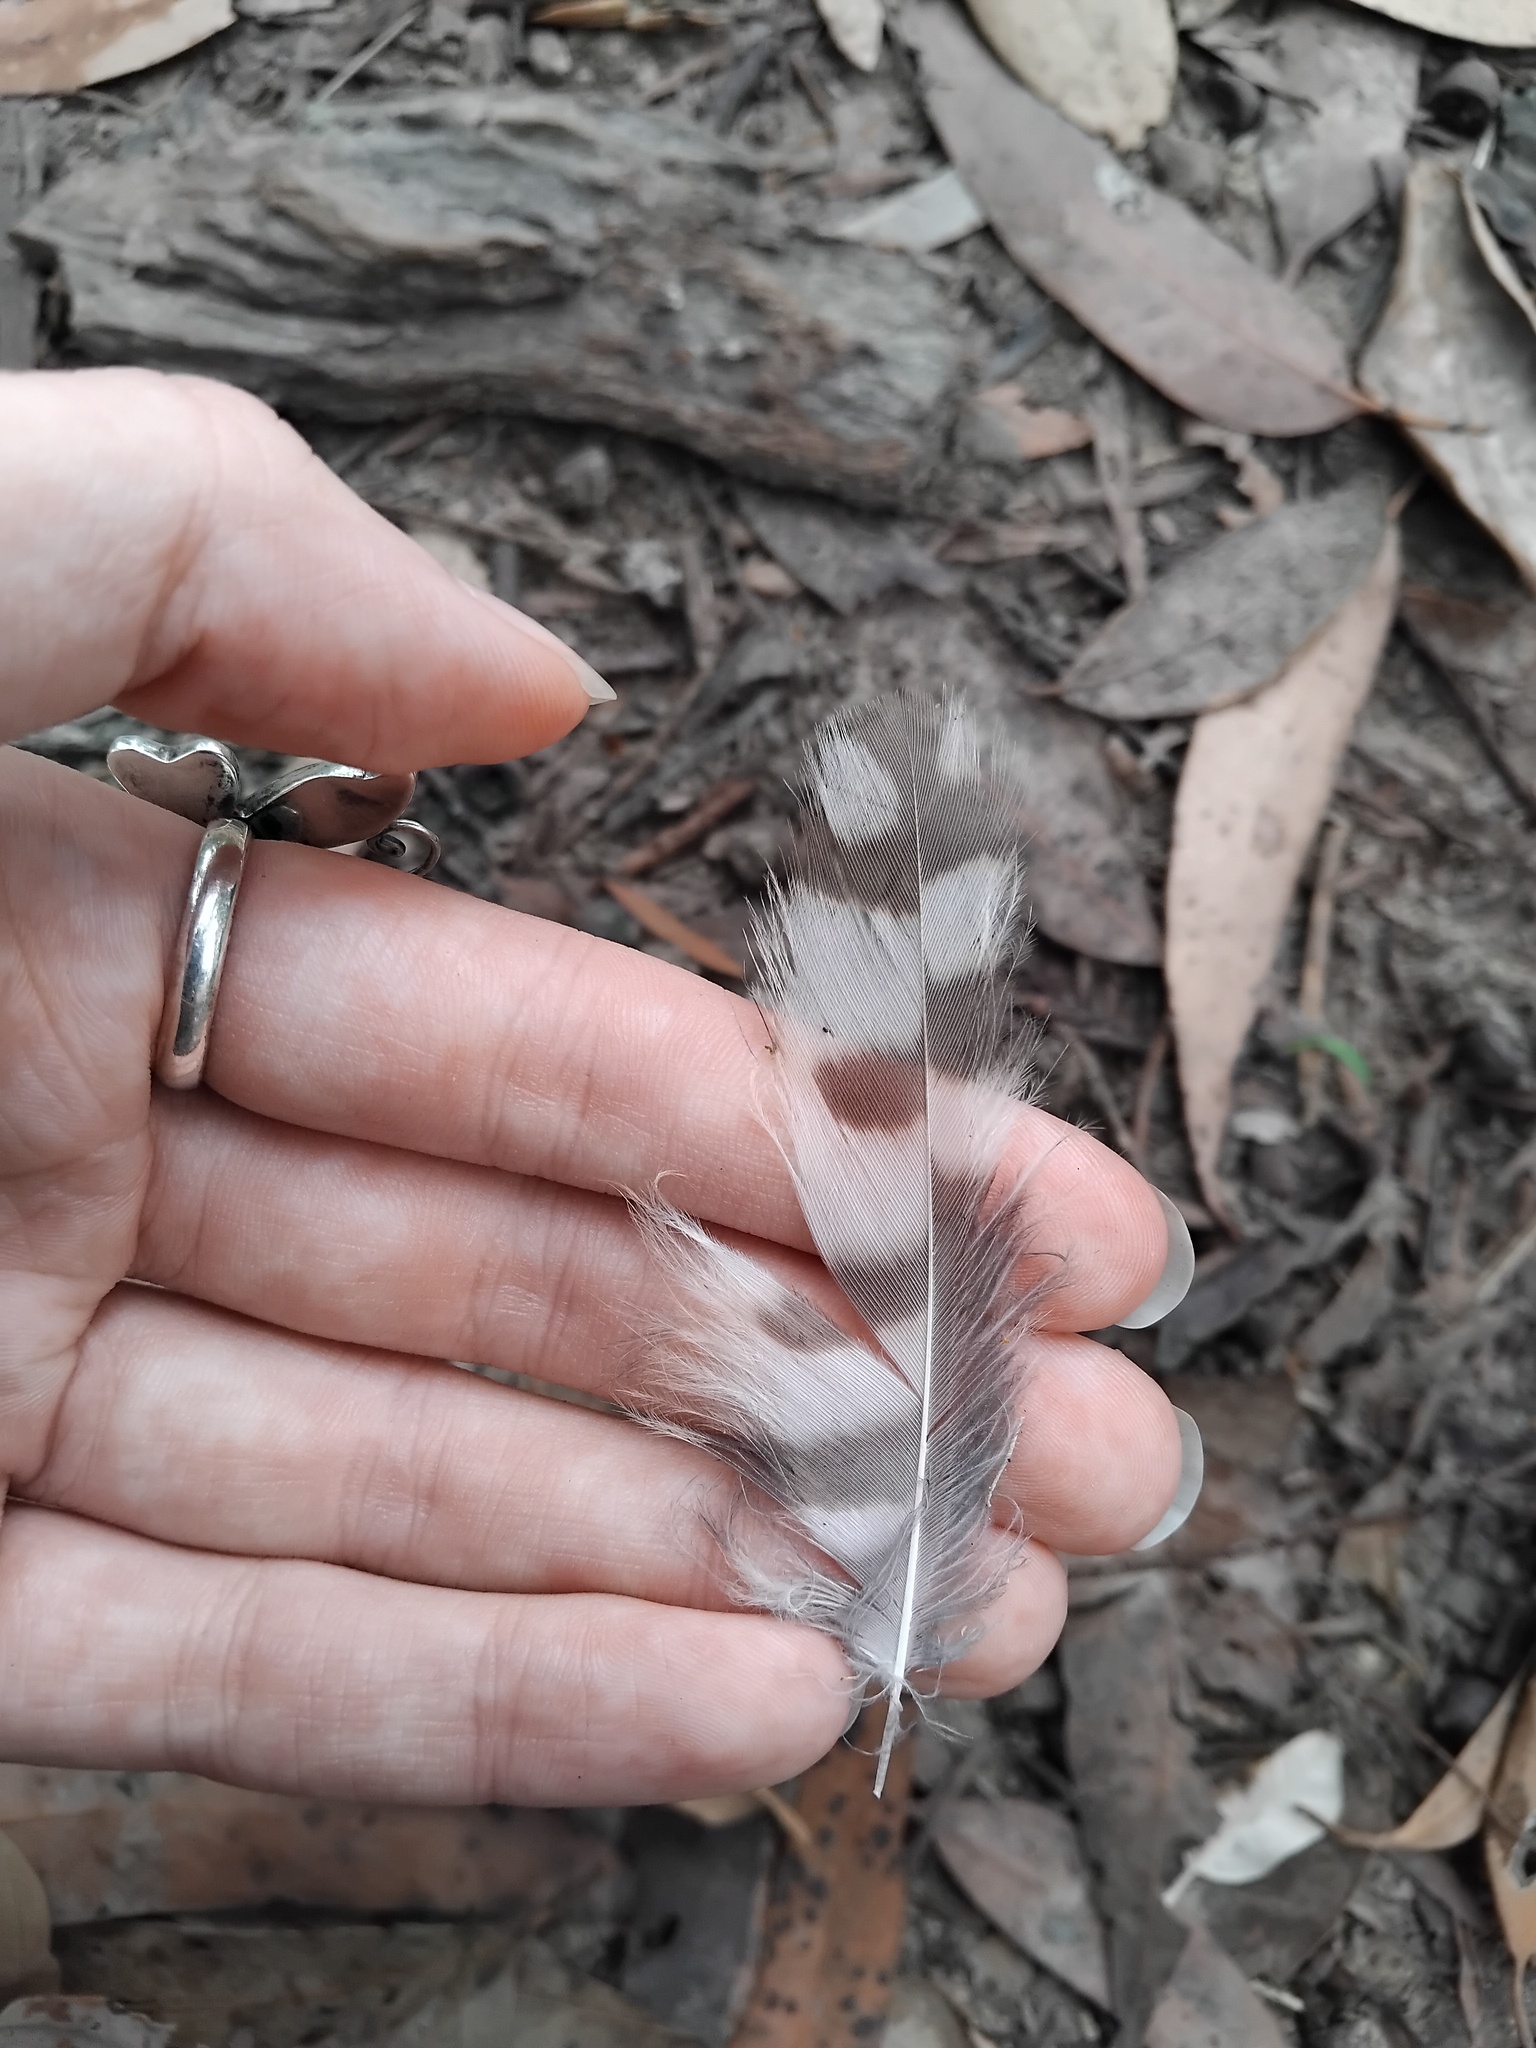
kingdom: Animalia
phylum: Chordata
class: Aves
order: Strigiformes
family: Strigidae
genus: Ninox
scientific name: Ninox strenua
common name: Powerful owl
